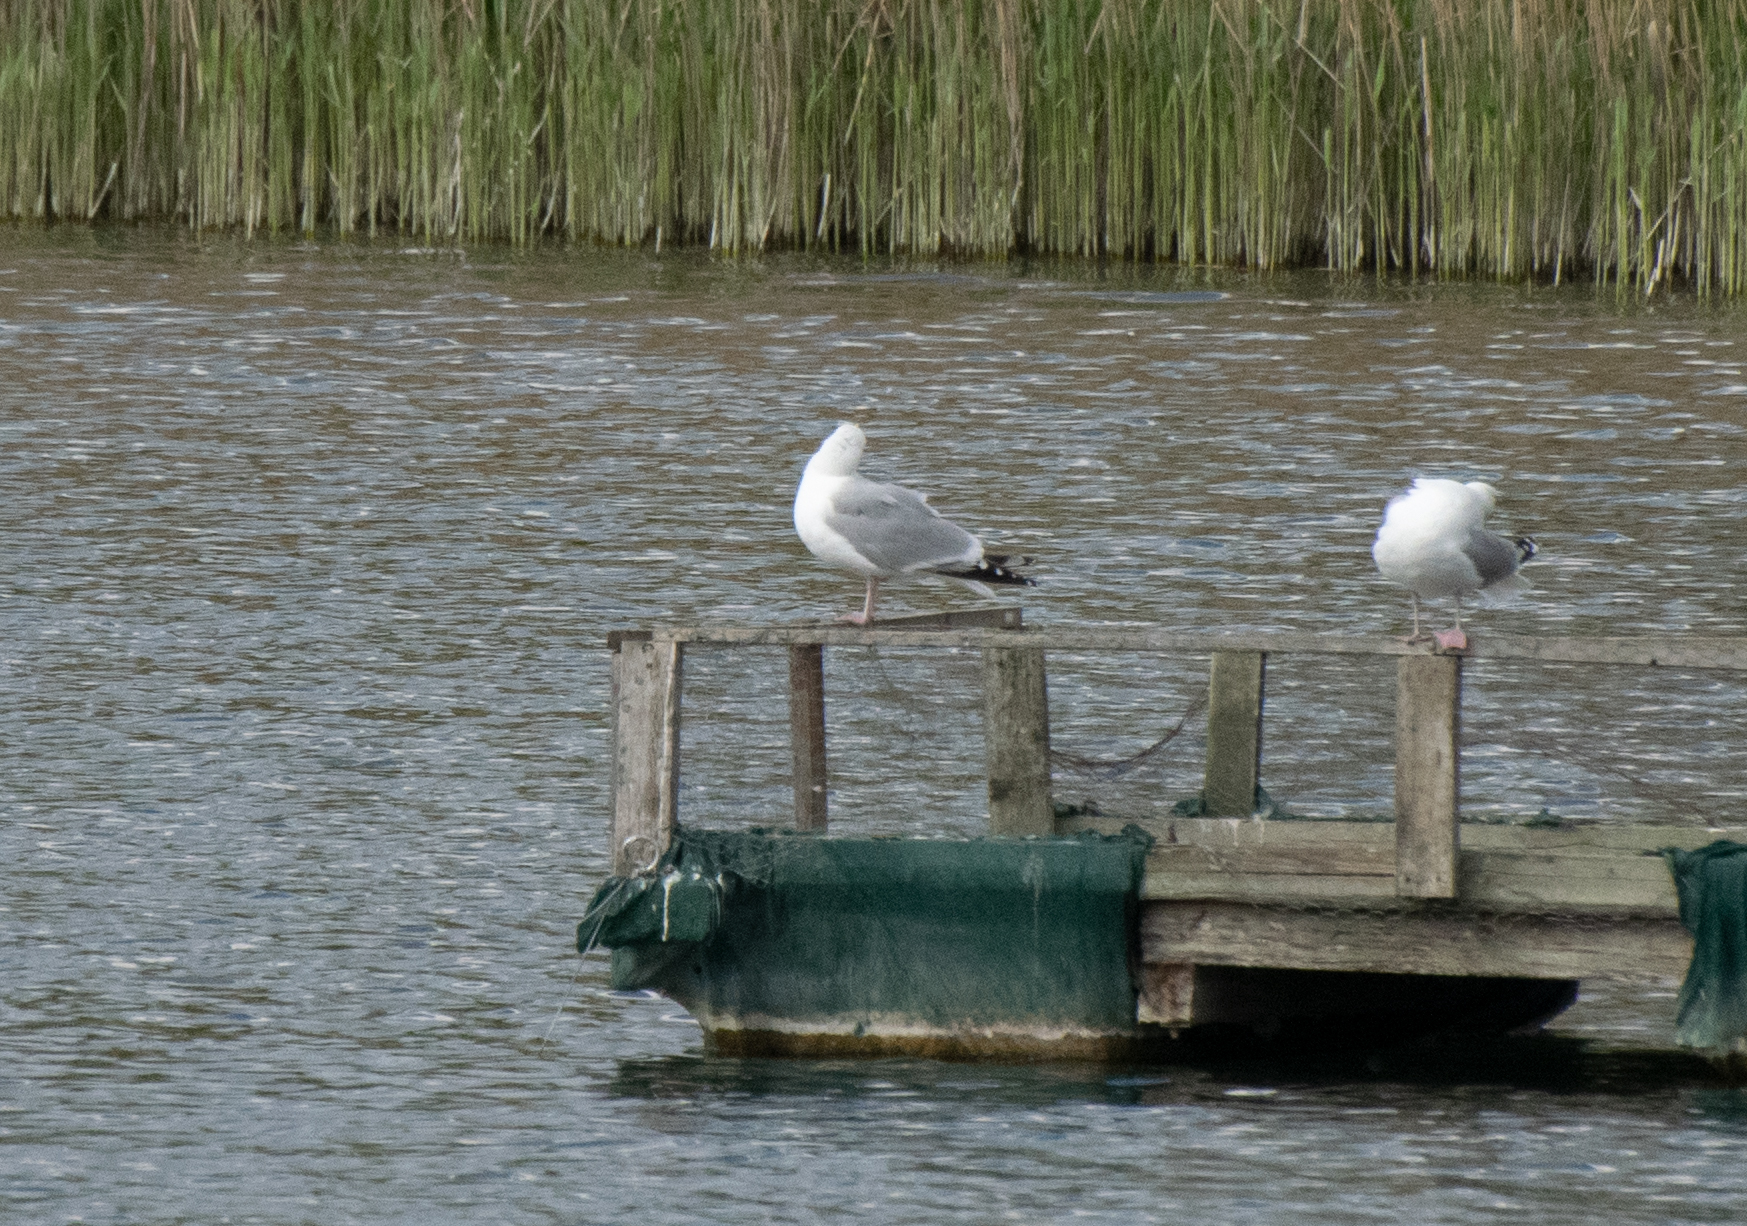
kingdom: Animalia
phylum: Chordata
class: Aves
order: Charadriiformes
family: Laridae
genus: Larus
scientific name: Larus argentatus
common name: Herring gull
